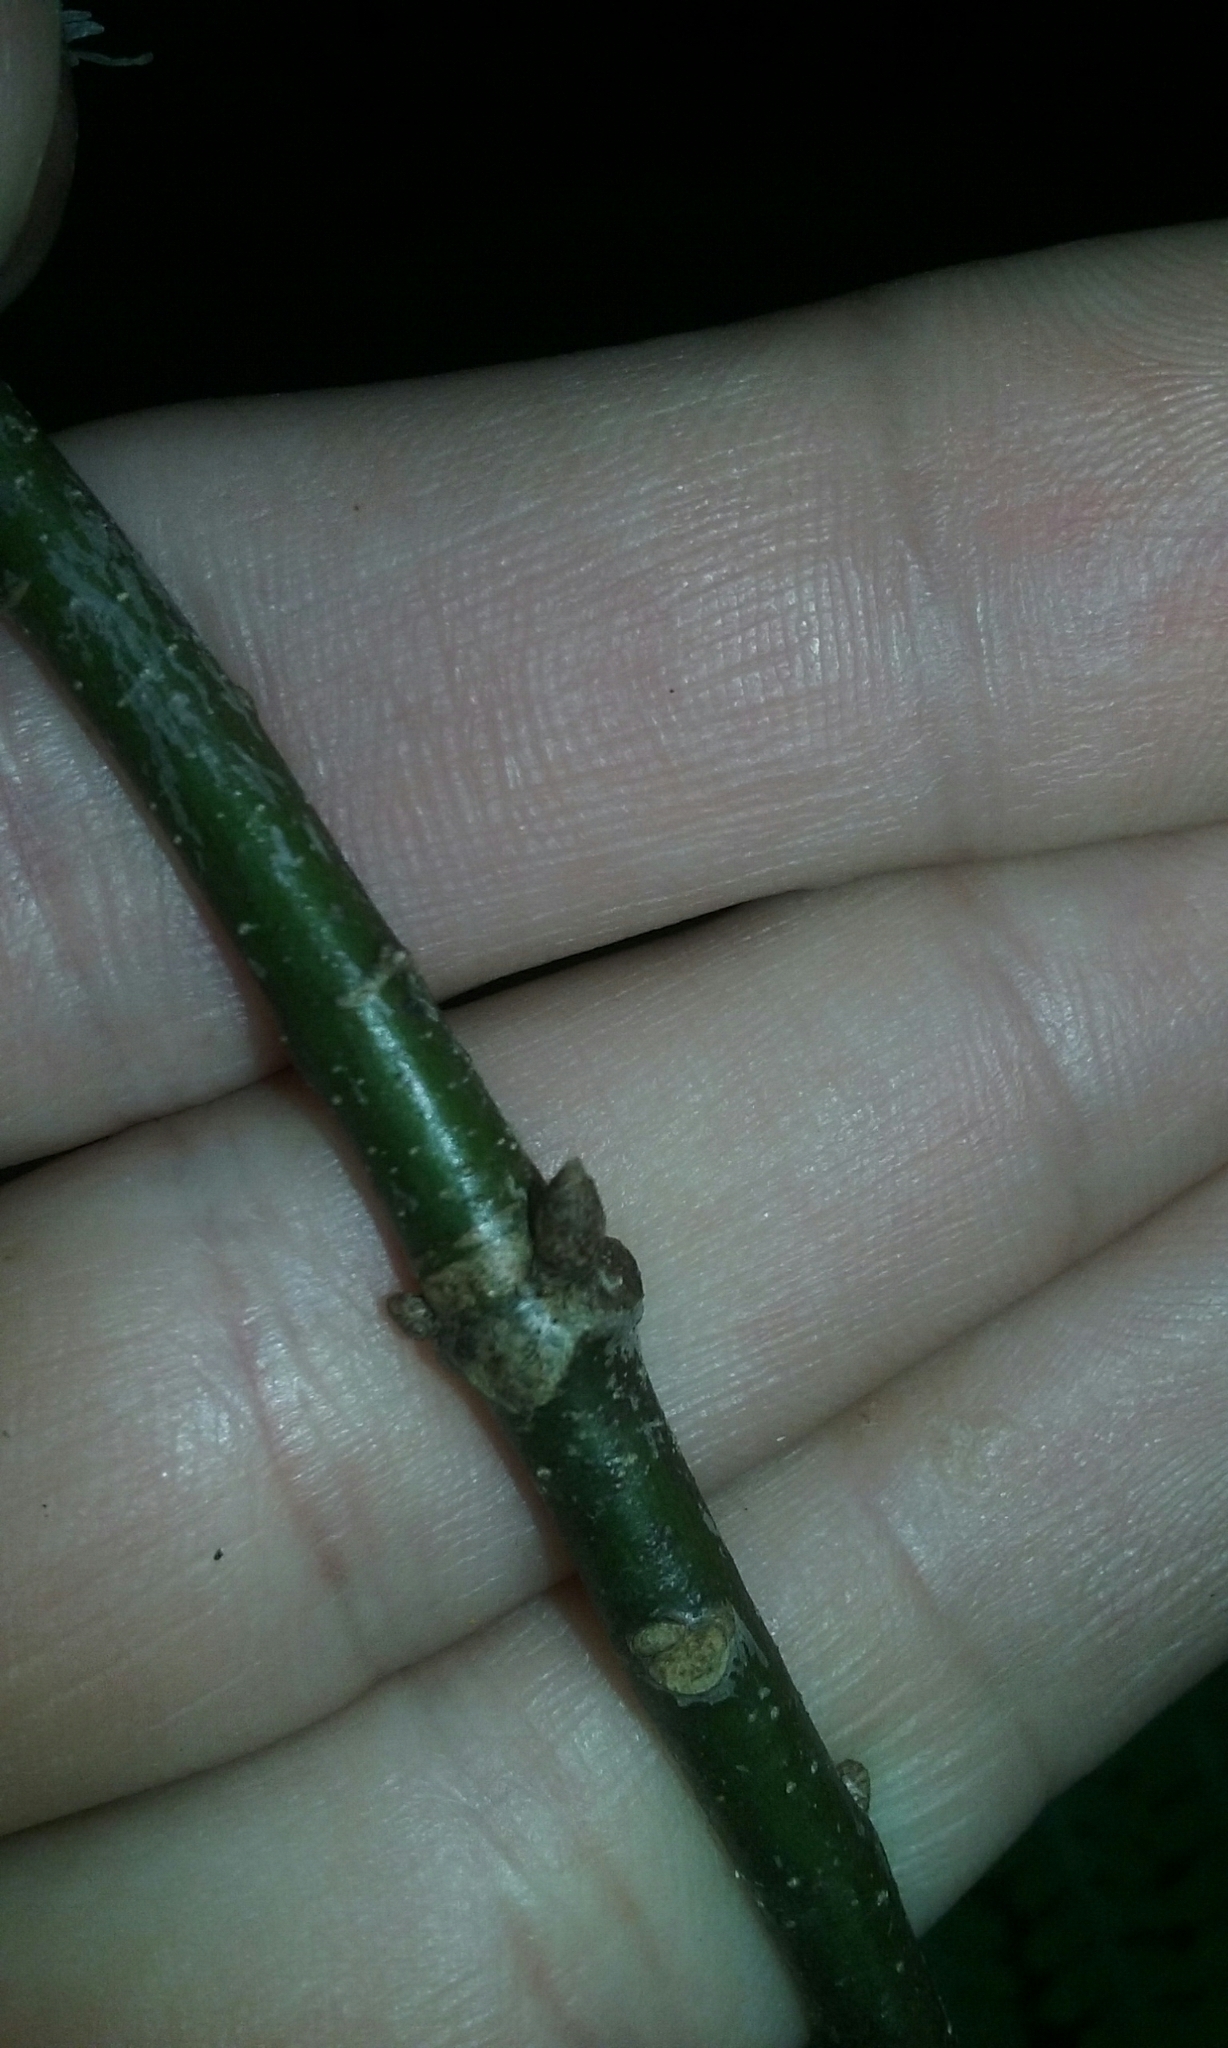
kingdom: Plantae
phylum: Tracheophyta
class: Magnoliopsida
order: Fagales
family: Fagaceae
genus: Quercus
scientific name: Quercus rubra
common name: Red oak
